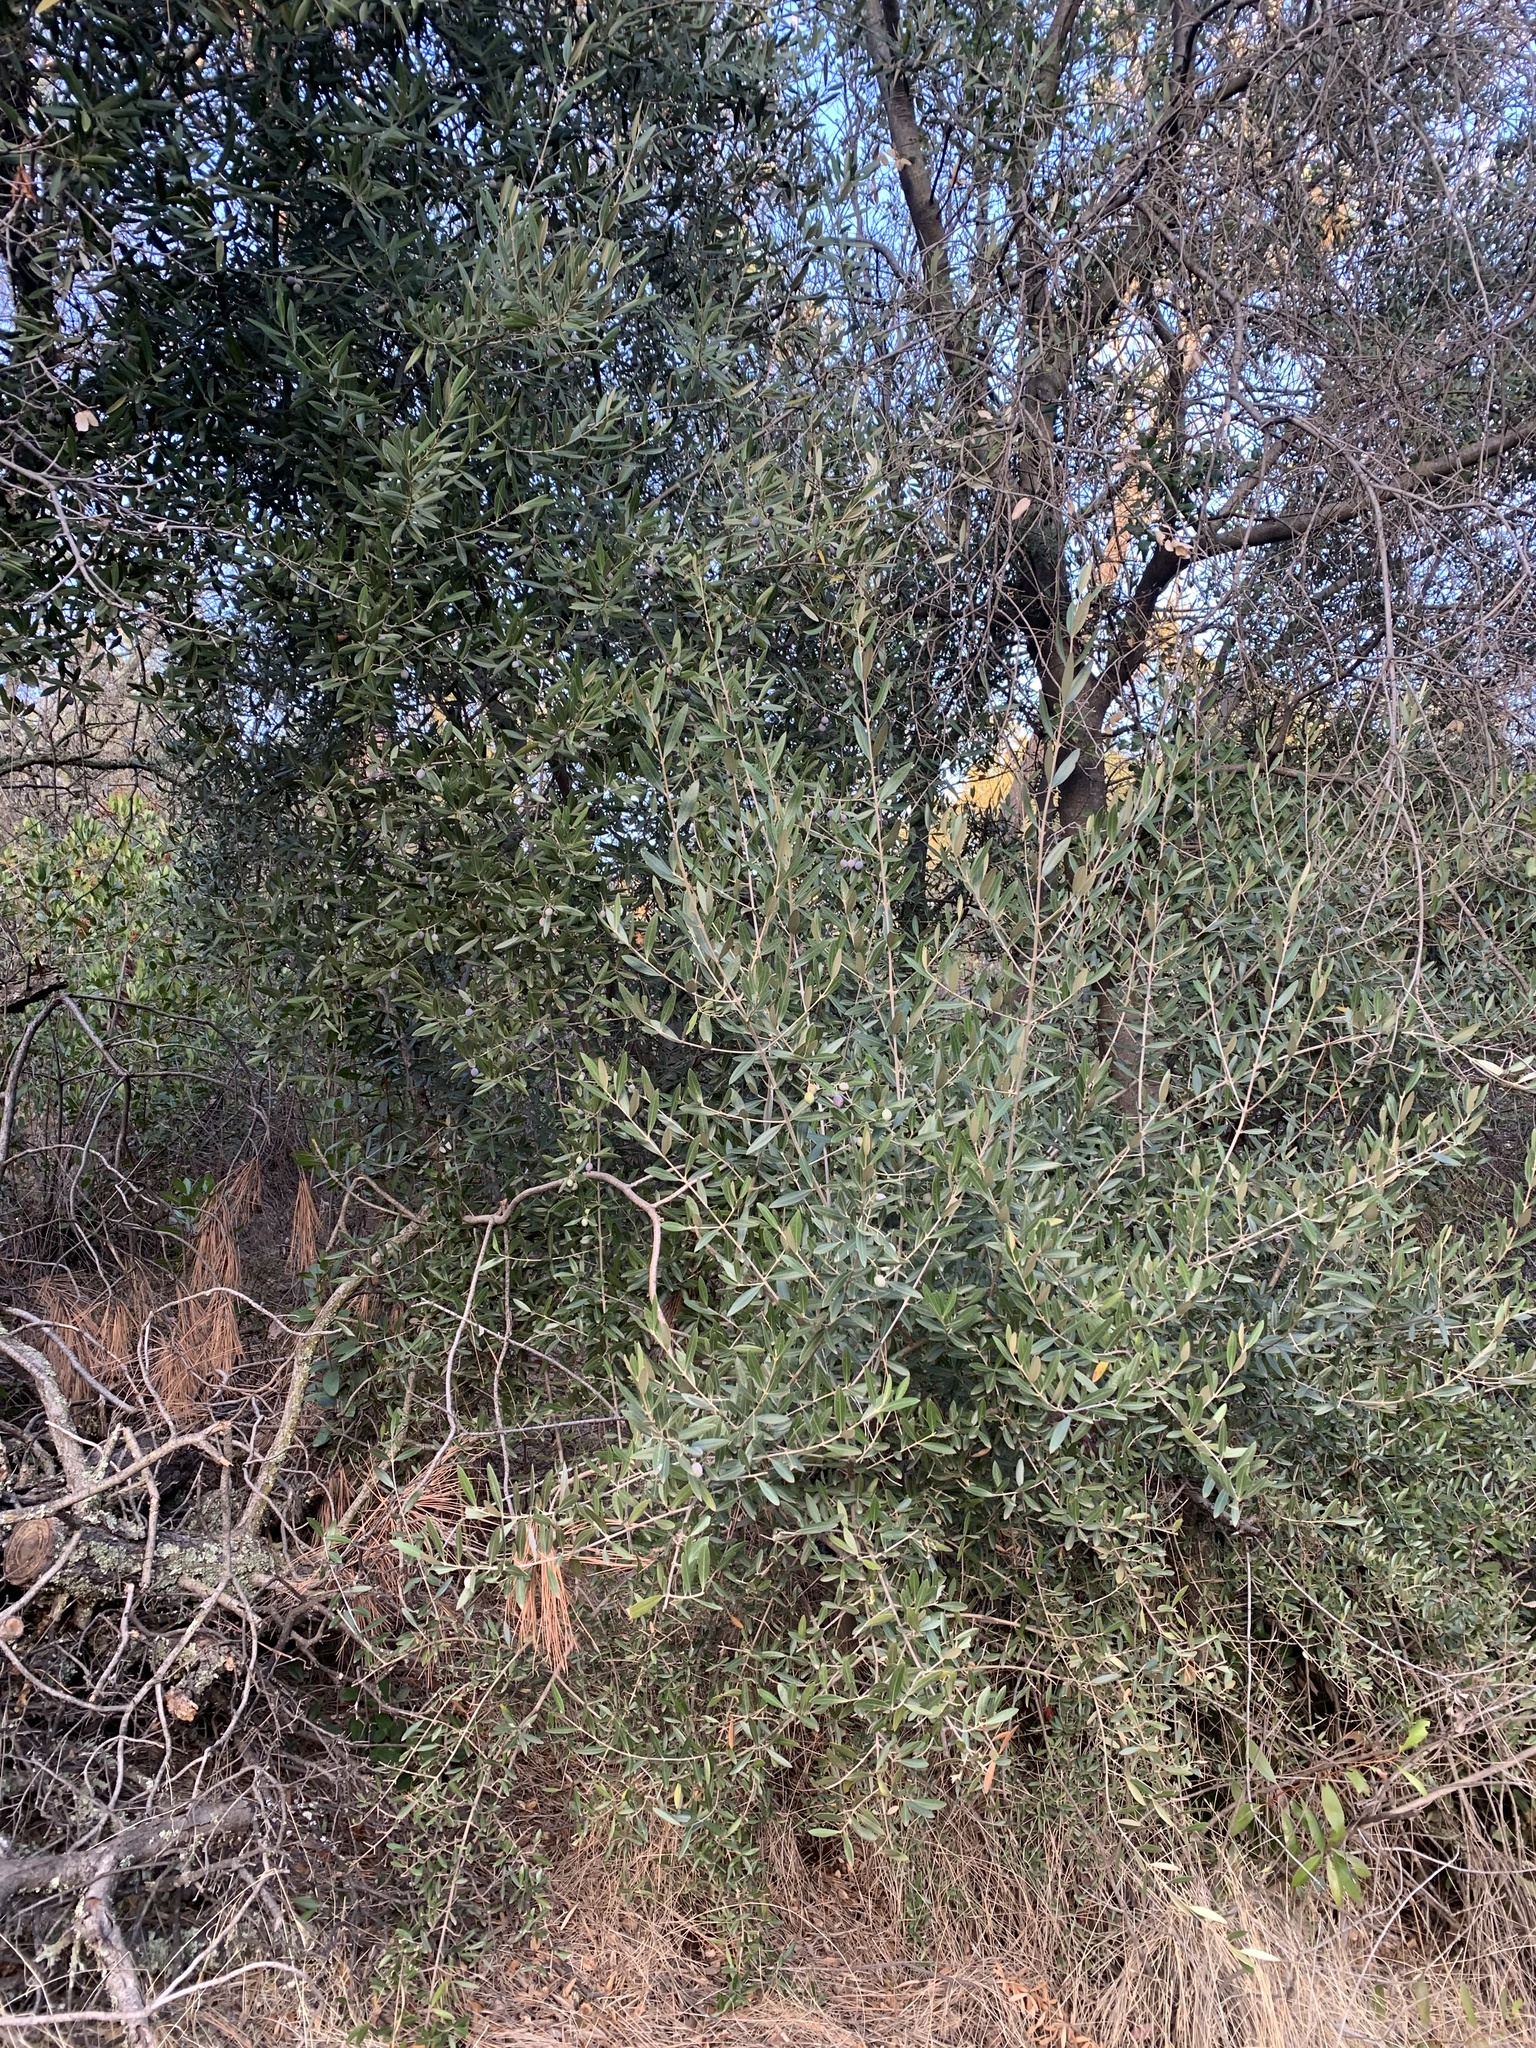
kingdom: Plantae
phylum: Tracheophyta
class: Magnoliopsida
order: Lamiales
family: Oleaceae
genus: Olea
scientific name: Olea europaea
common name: Olive
